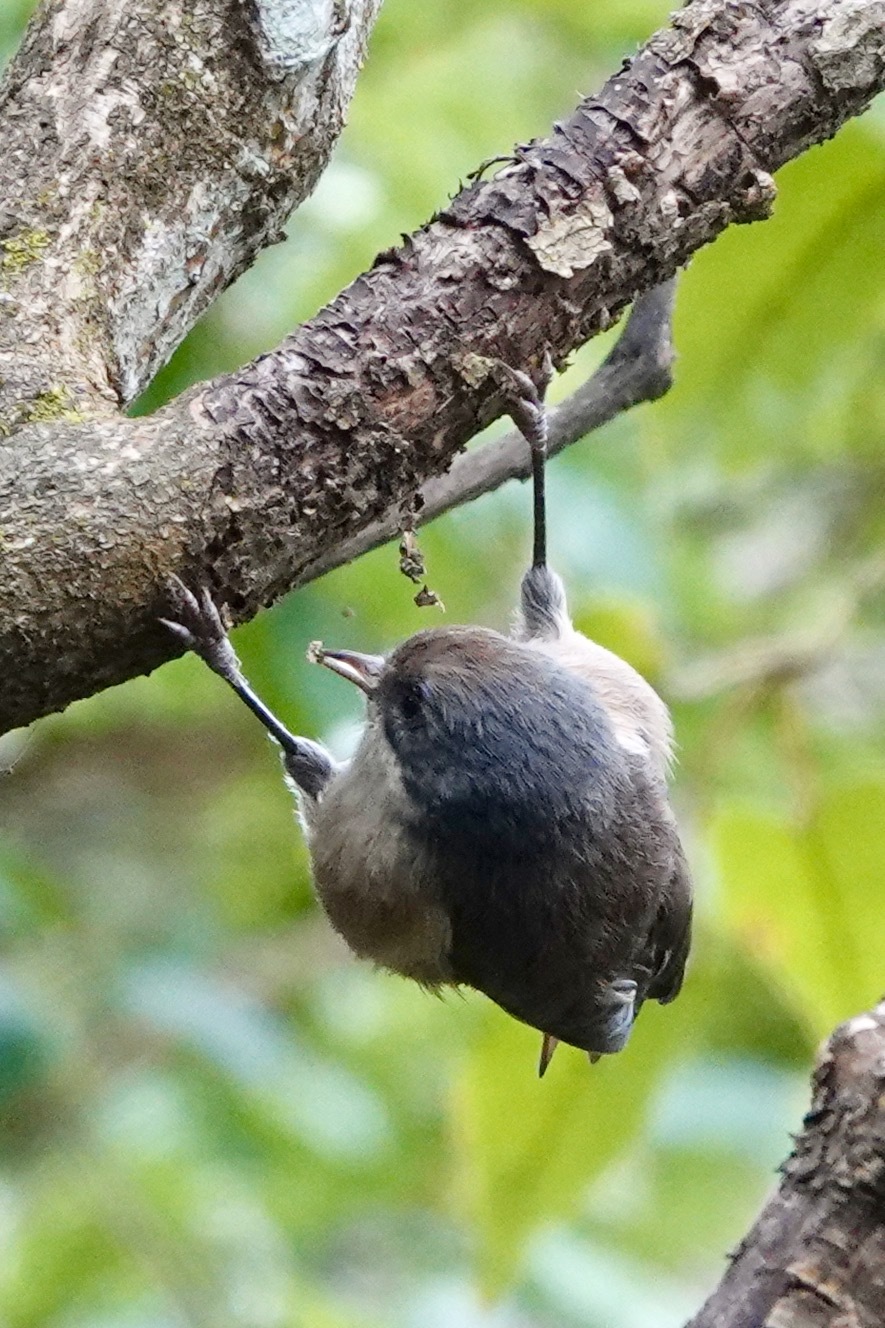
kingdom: Animalia
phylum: Chordata
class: Aves
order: Passeriformes
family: Acanthizidae
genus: Finschia
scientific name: Finschia novaeseelandiae
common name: Pipipi
